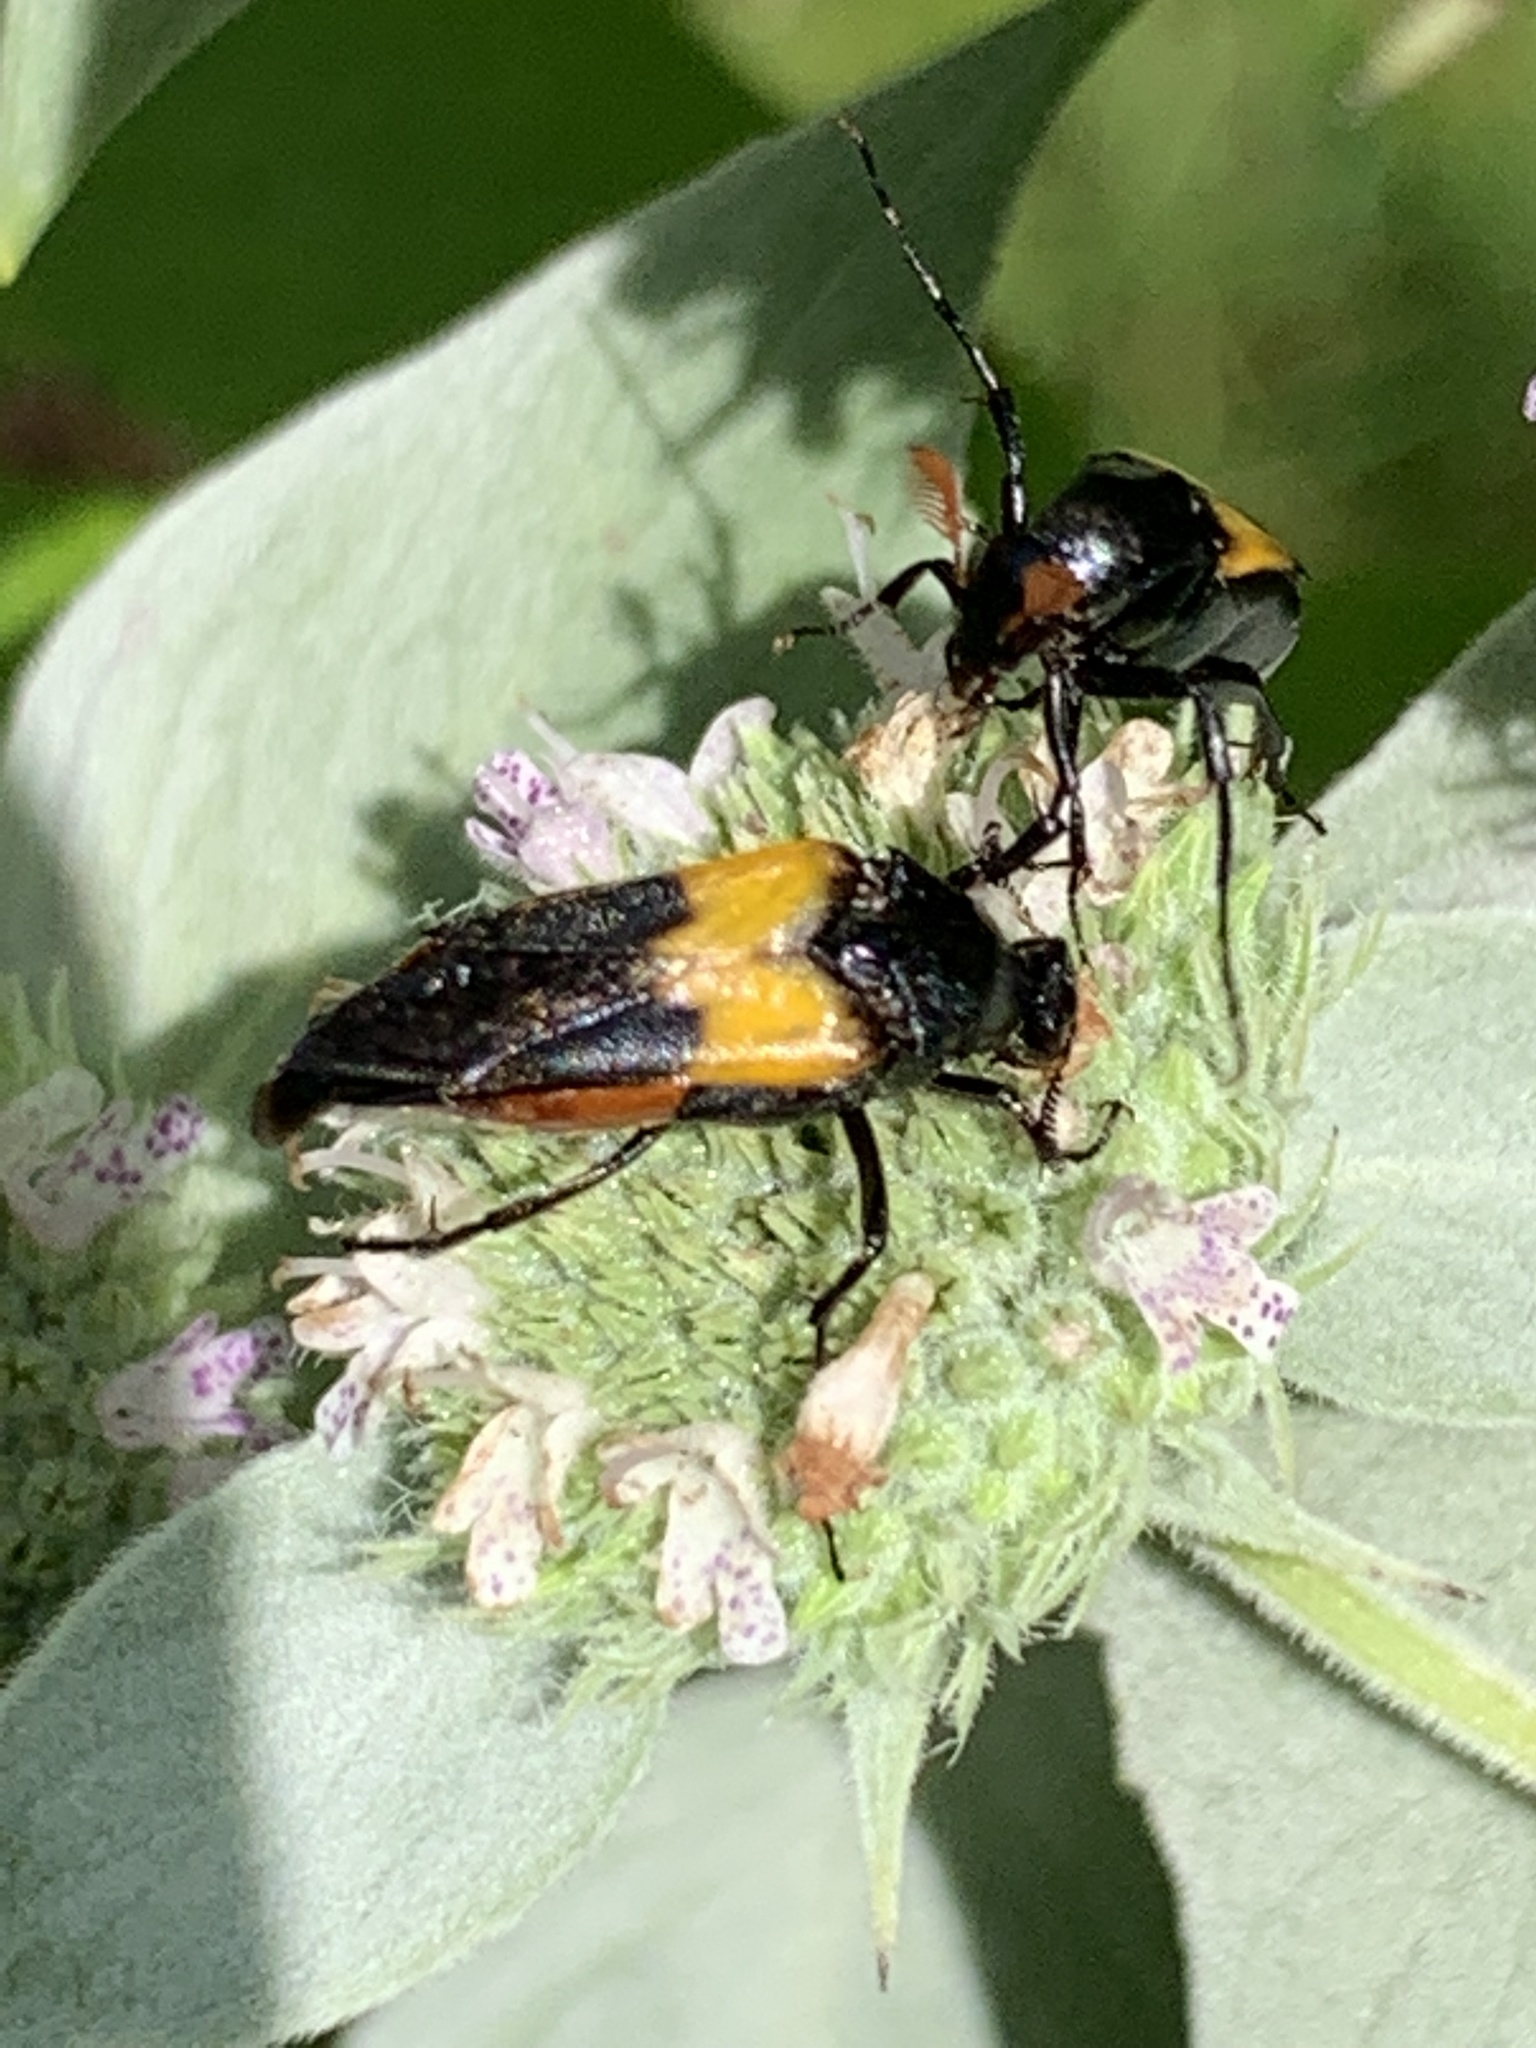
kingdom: Animalia
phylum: Arthropoda
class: Insecta
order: Coleoptera
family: Ripiphoridae
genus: Macrosiagon
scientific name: Macrosiagon flavipennis
